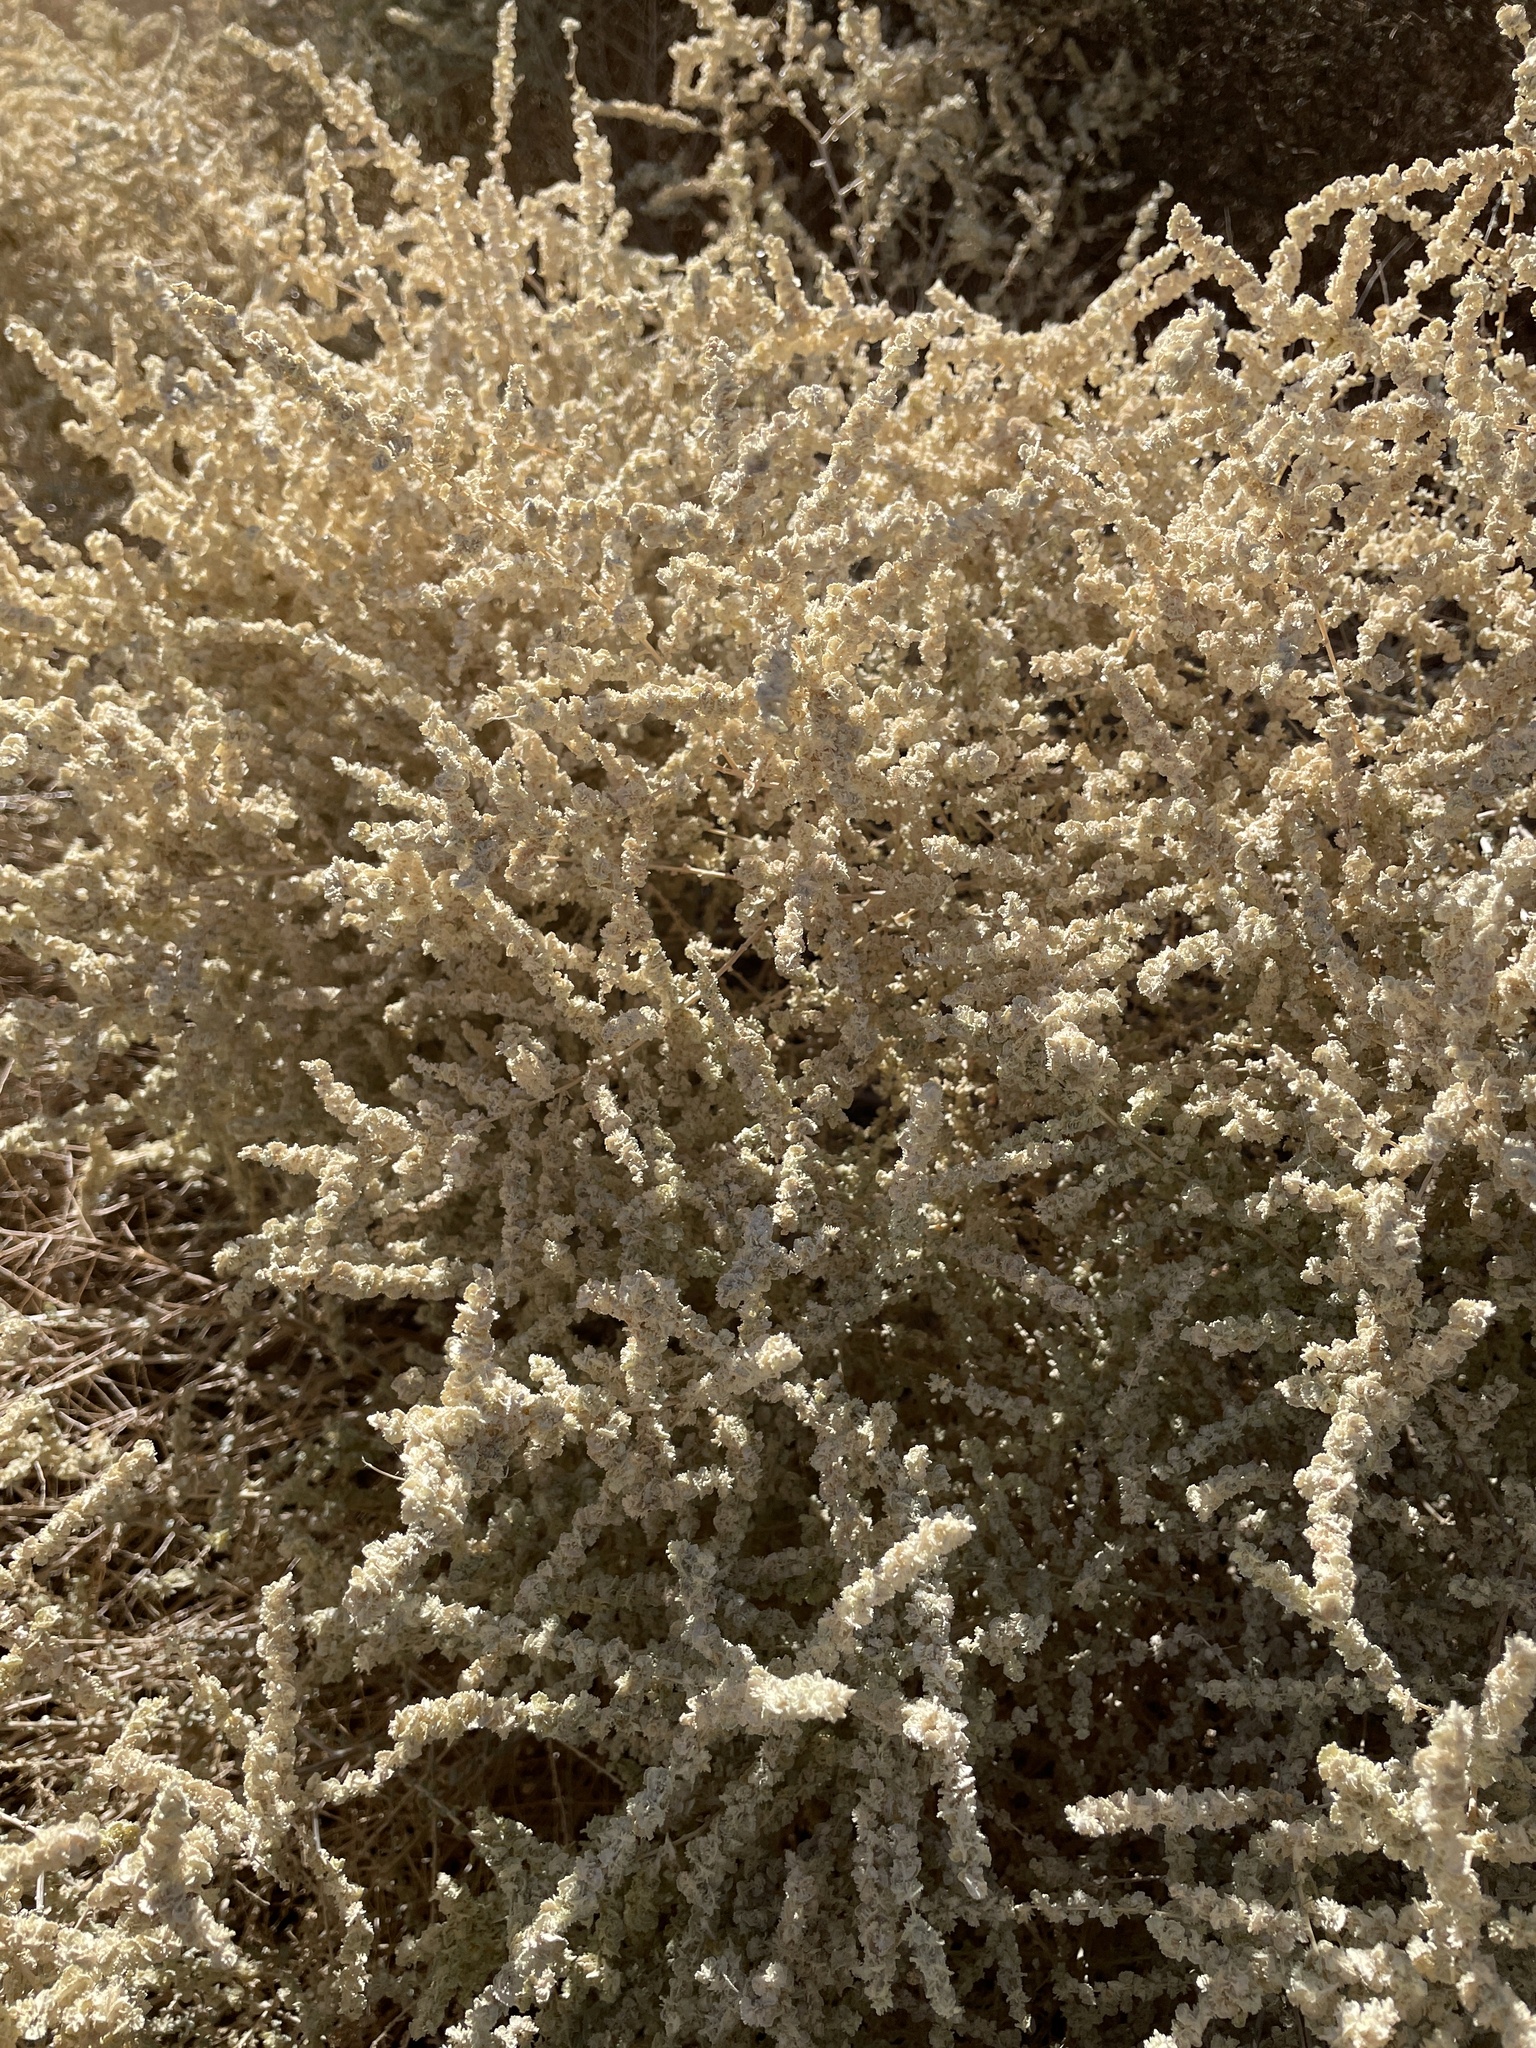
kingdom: Plantae
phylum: Tracheophyta
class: Magnoliopsida
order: Caryophyllales
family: Amaranthaceae
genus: Atriplex
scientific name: Atriplex polycarpa
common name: Desert saltbush
